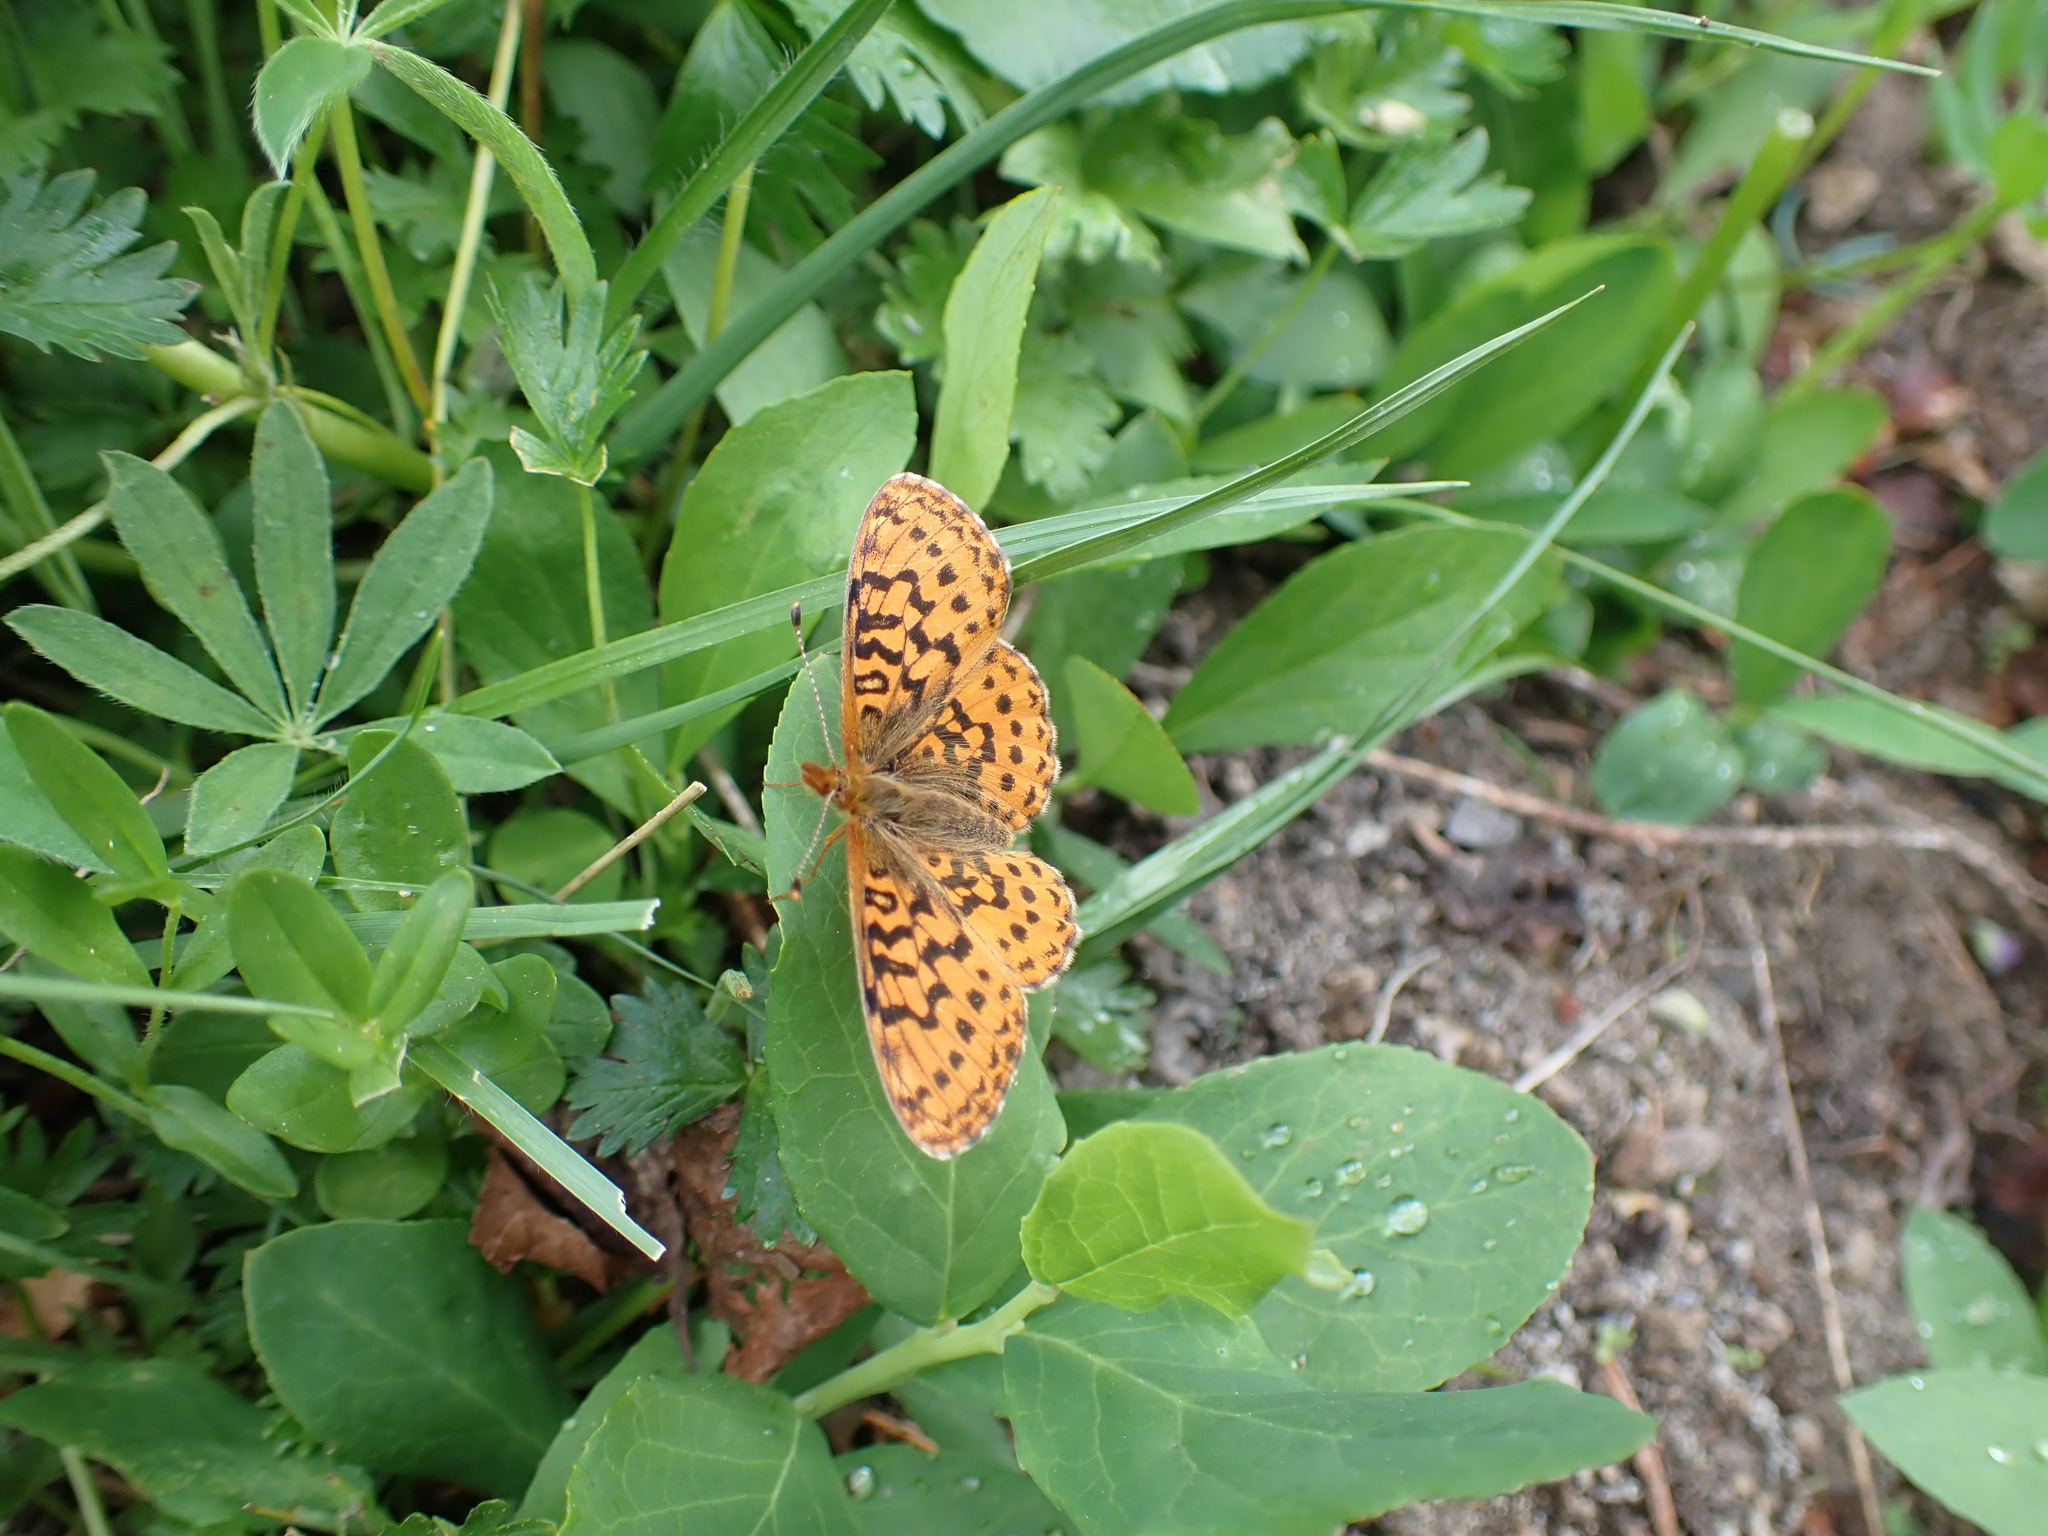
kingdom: Animalia
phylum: Arthropoda
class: Insecta
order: Lepidoptera
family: Nymphalidae
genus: Boloria
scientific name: Boloria epithore
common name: Pacific fritillary
